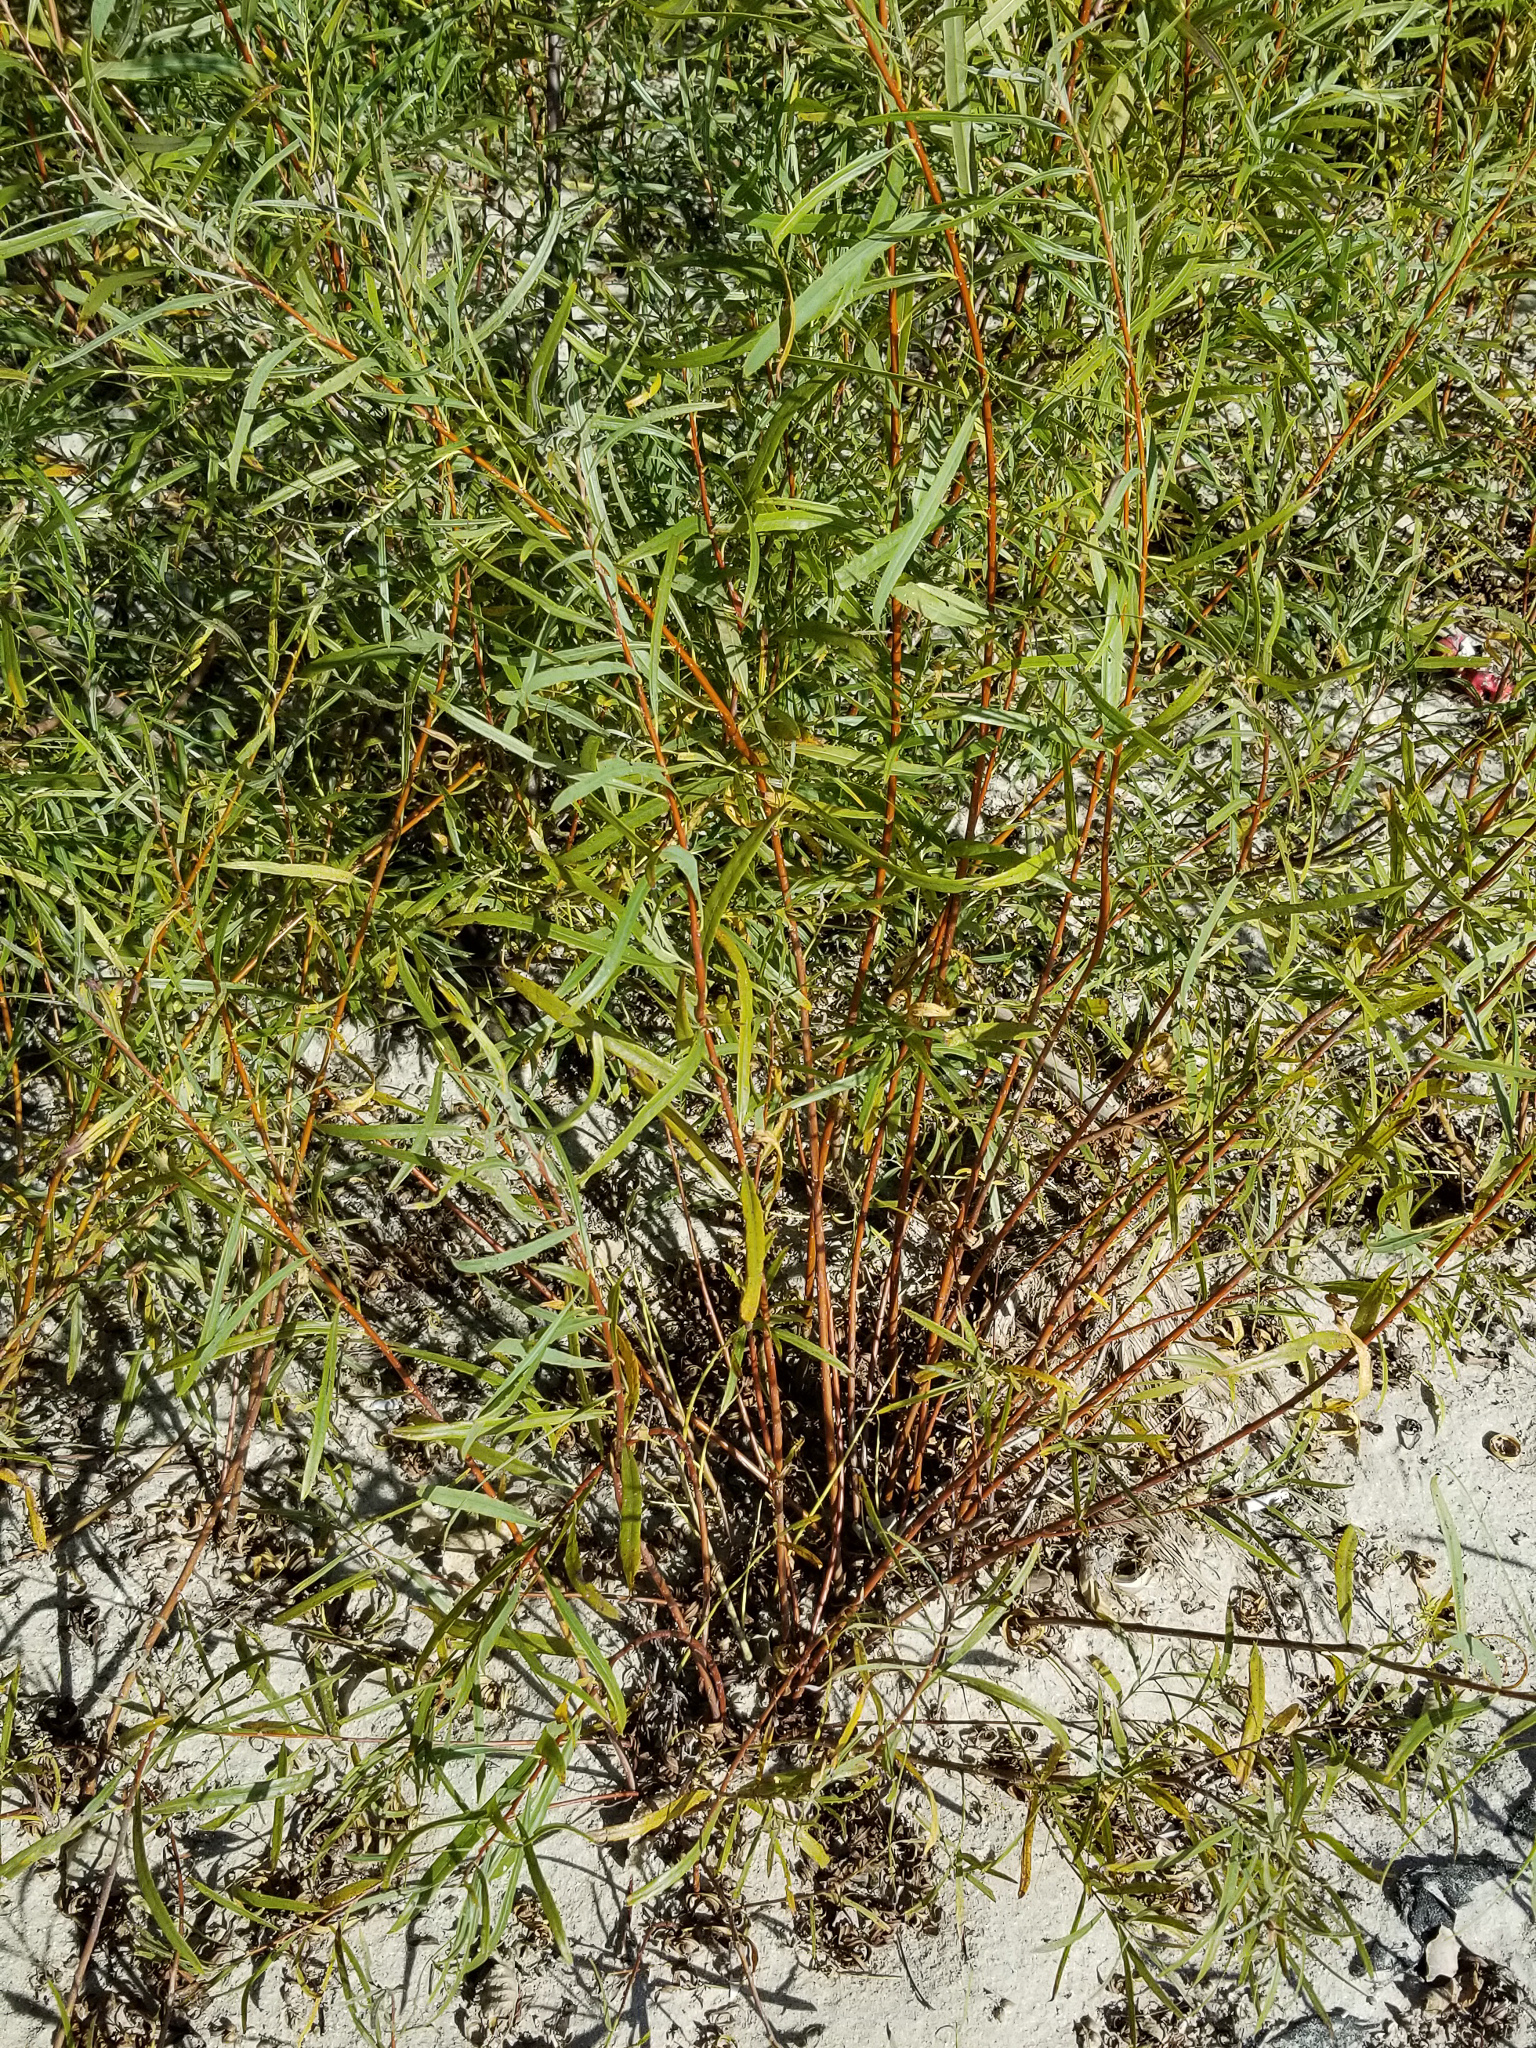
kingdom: Plantae
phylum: Tracheophyta
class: Magnoliopsida
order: Malpighiales
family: Salicaceae
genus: Salix
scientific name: Salix interior
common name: Sandbar willow
